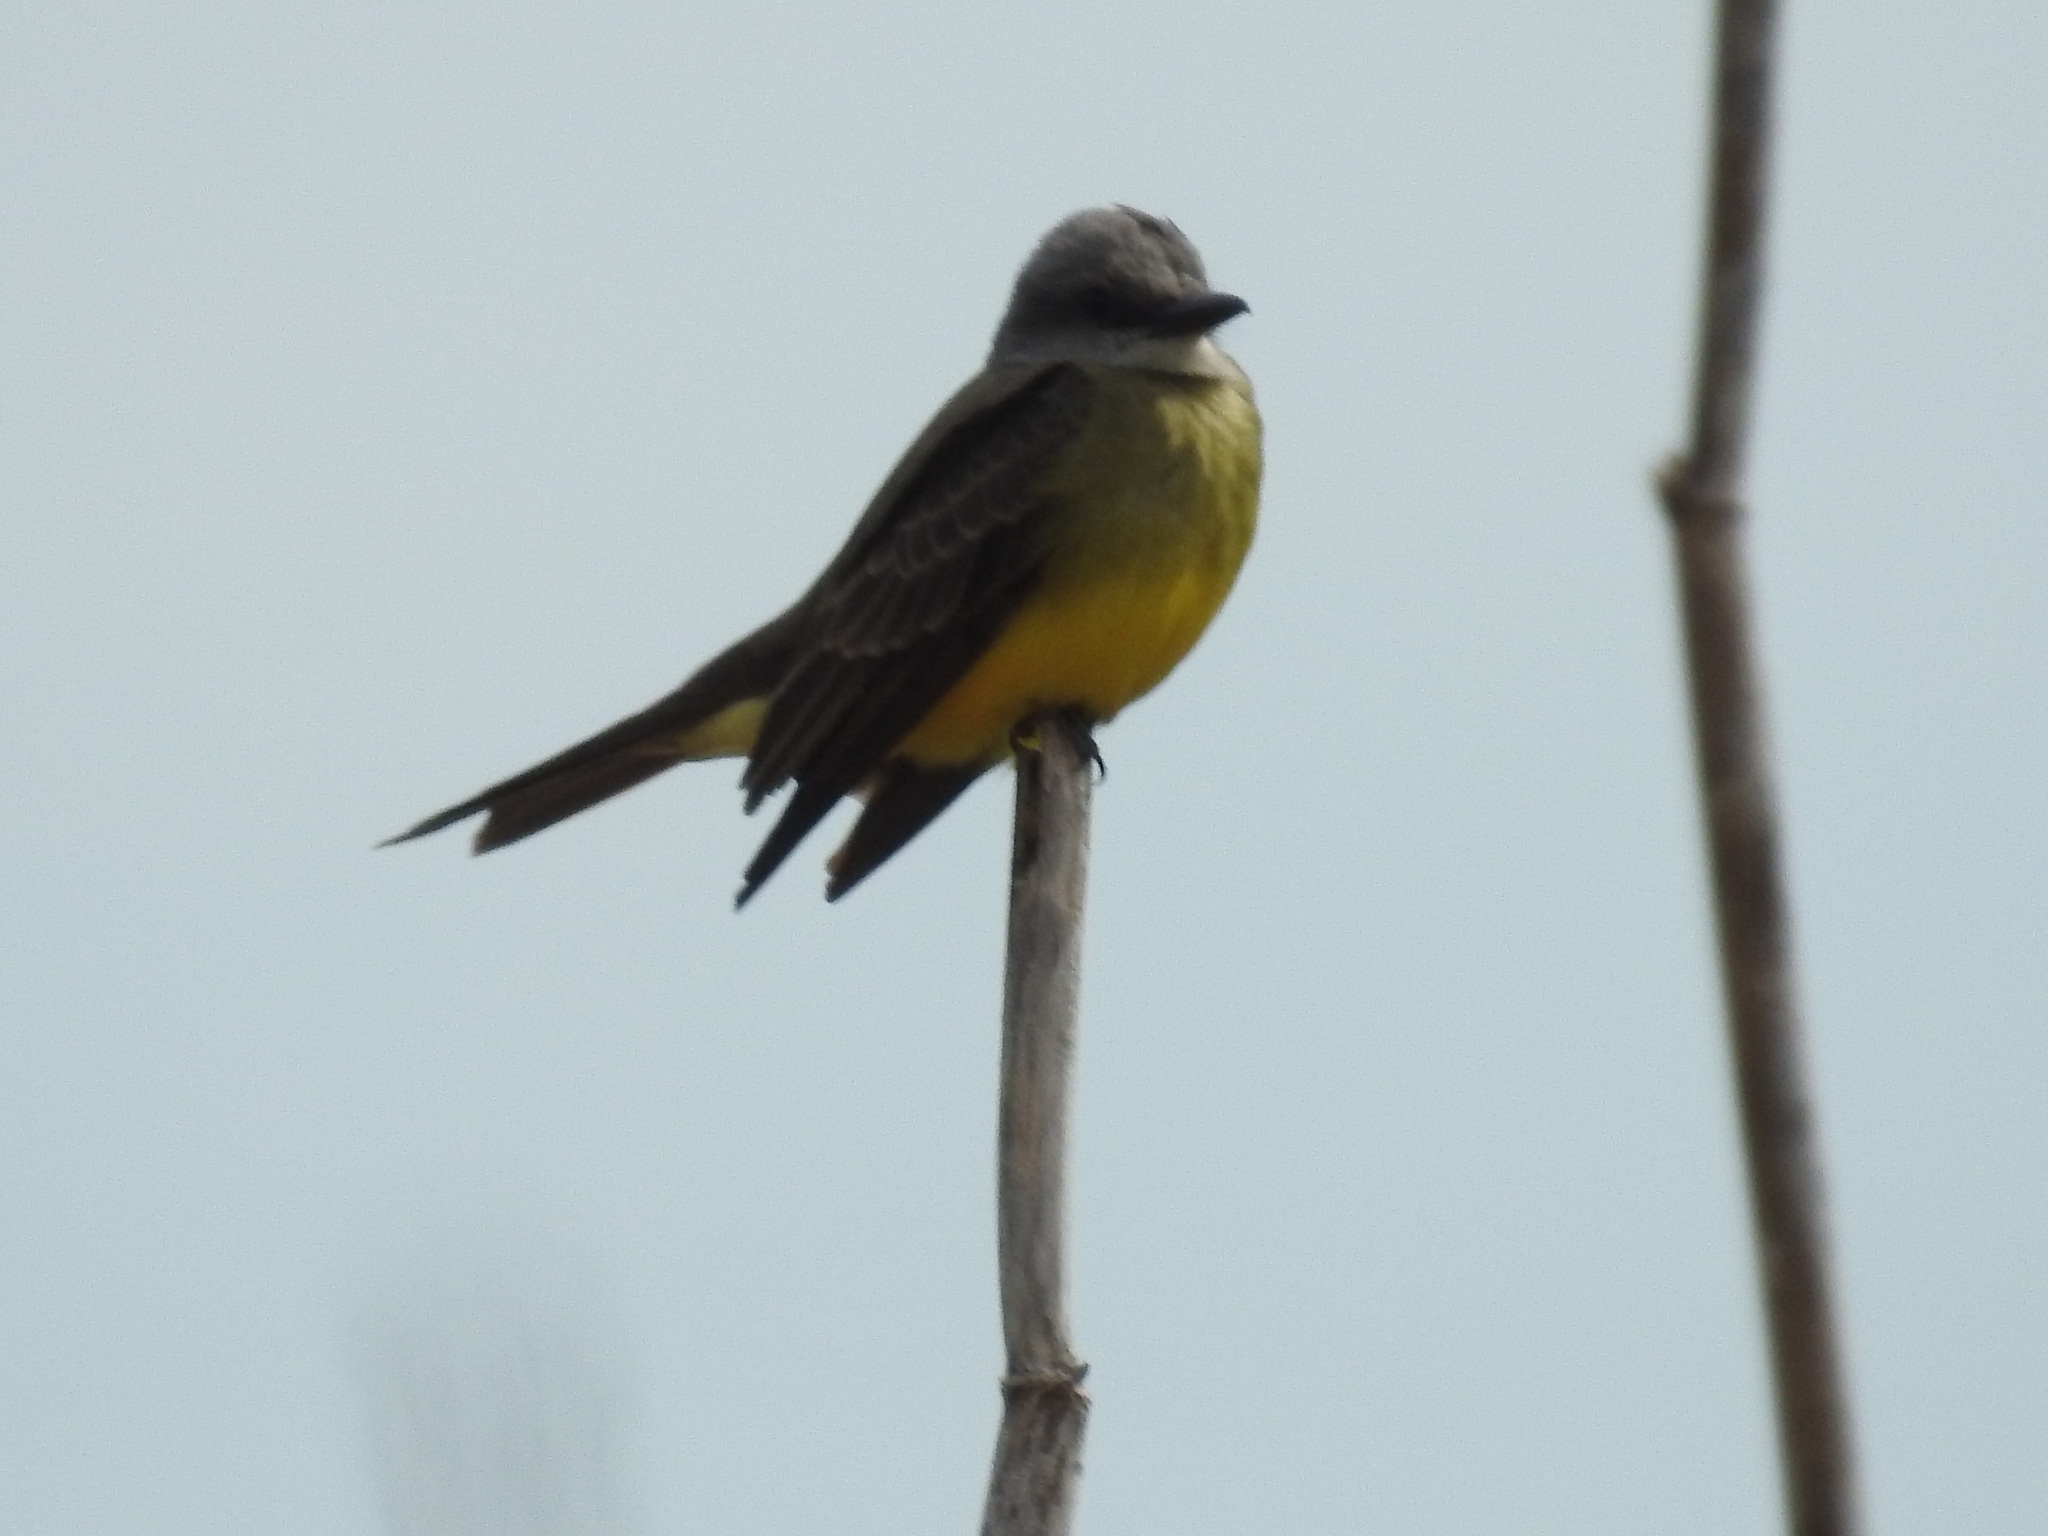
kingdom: Animalia
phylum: Chordata
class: Aves
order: Passeriformes
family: Tyrannidae
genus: Tyrannus
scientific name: Tyrannus melancholicus
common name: Tropical kingbird
